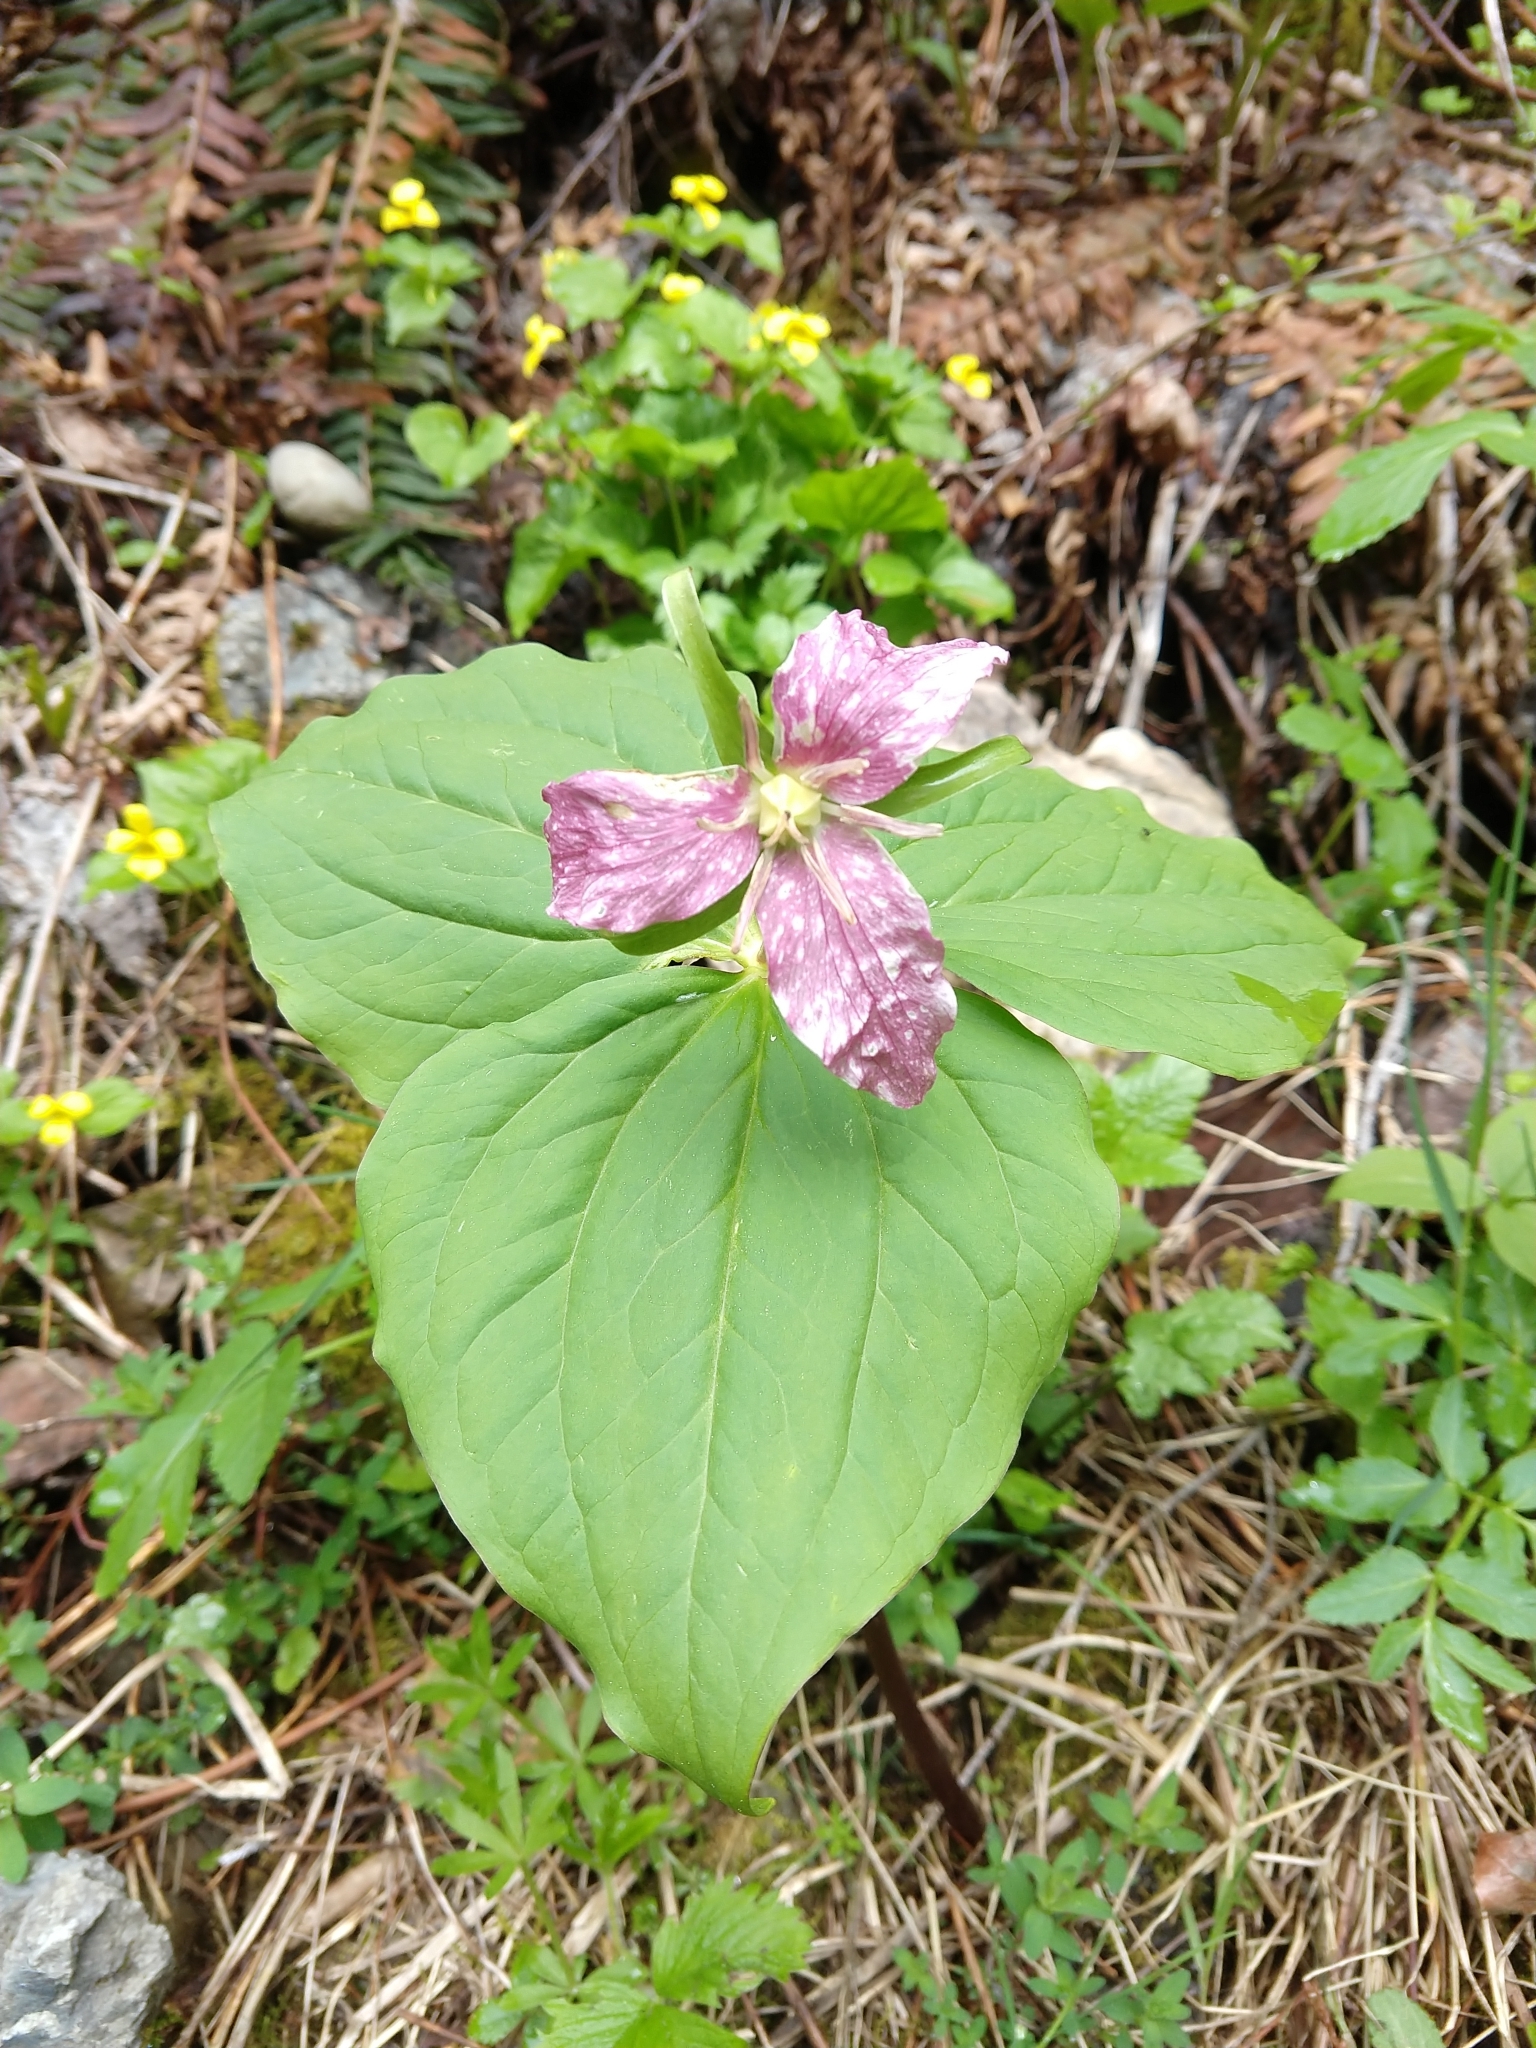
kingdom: Plantae
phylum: Tracheophyta
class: Liliopsida
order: Liliales
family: Melanthiaceae
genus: Trillium
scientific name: Trillium ovatum
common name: Pacific trillium
